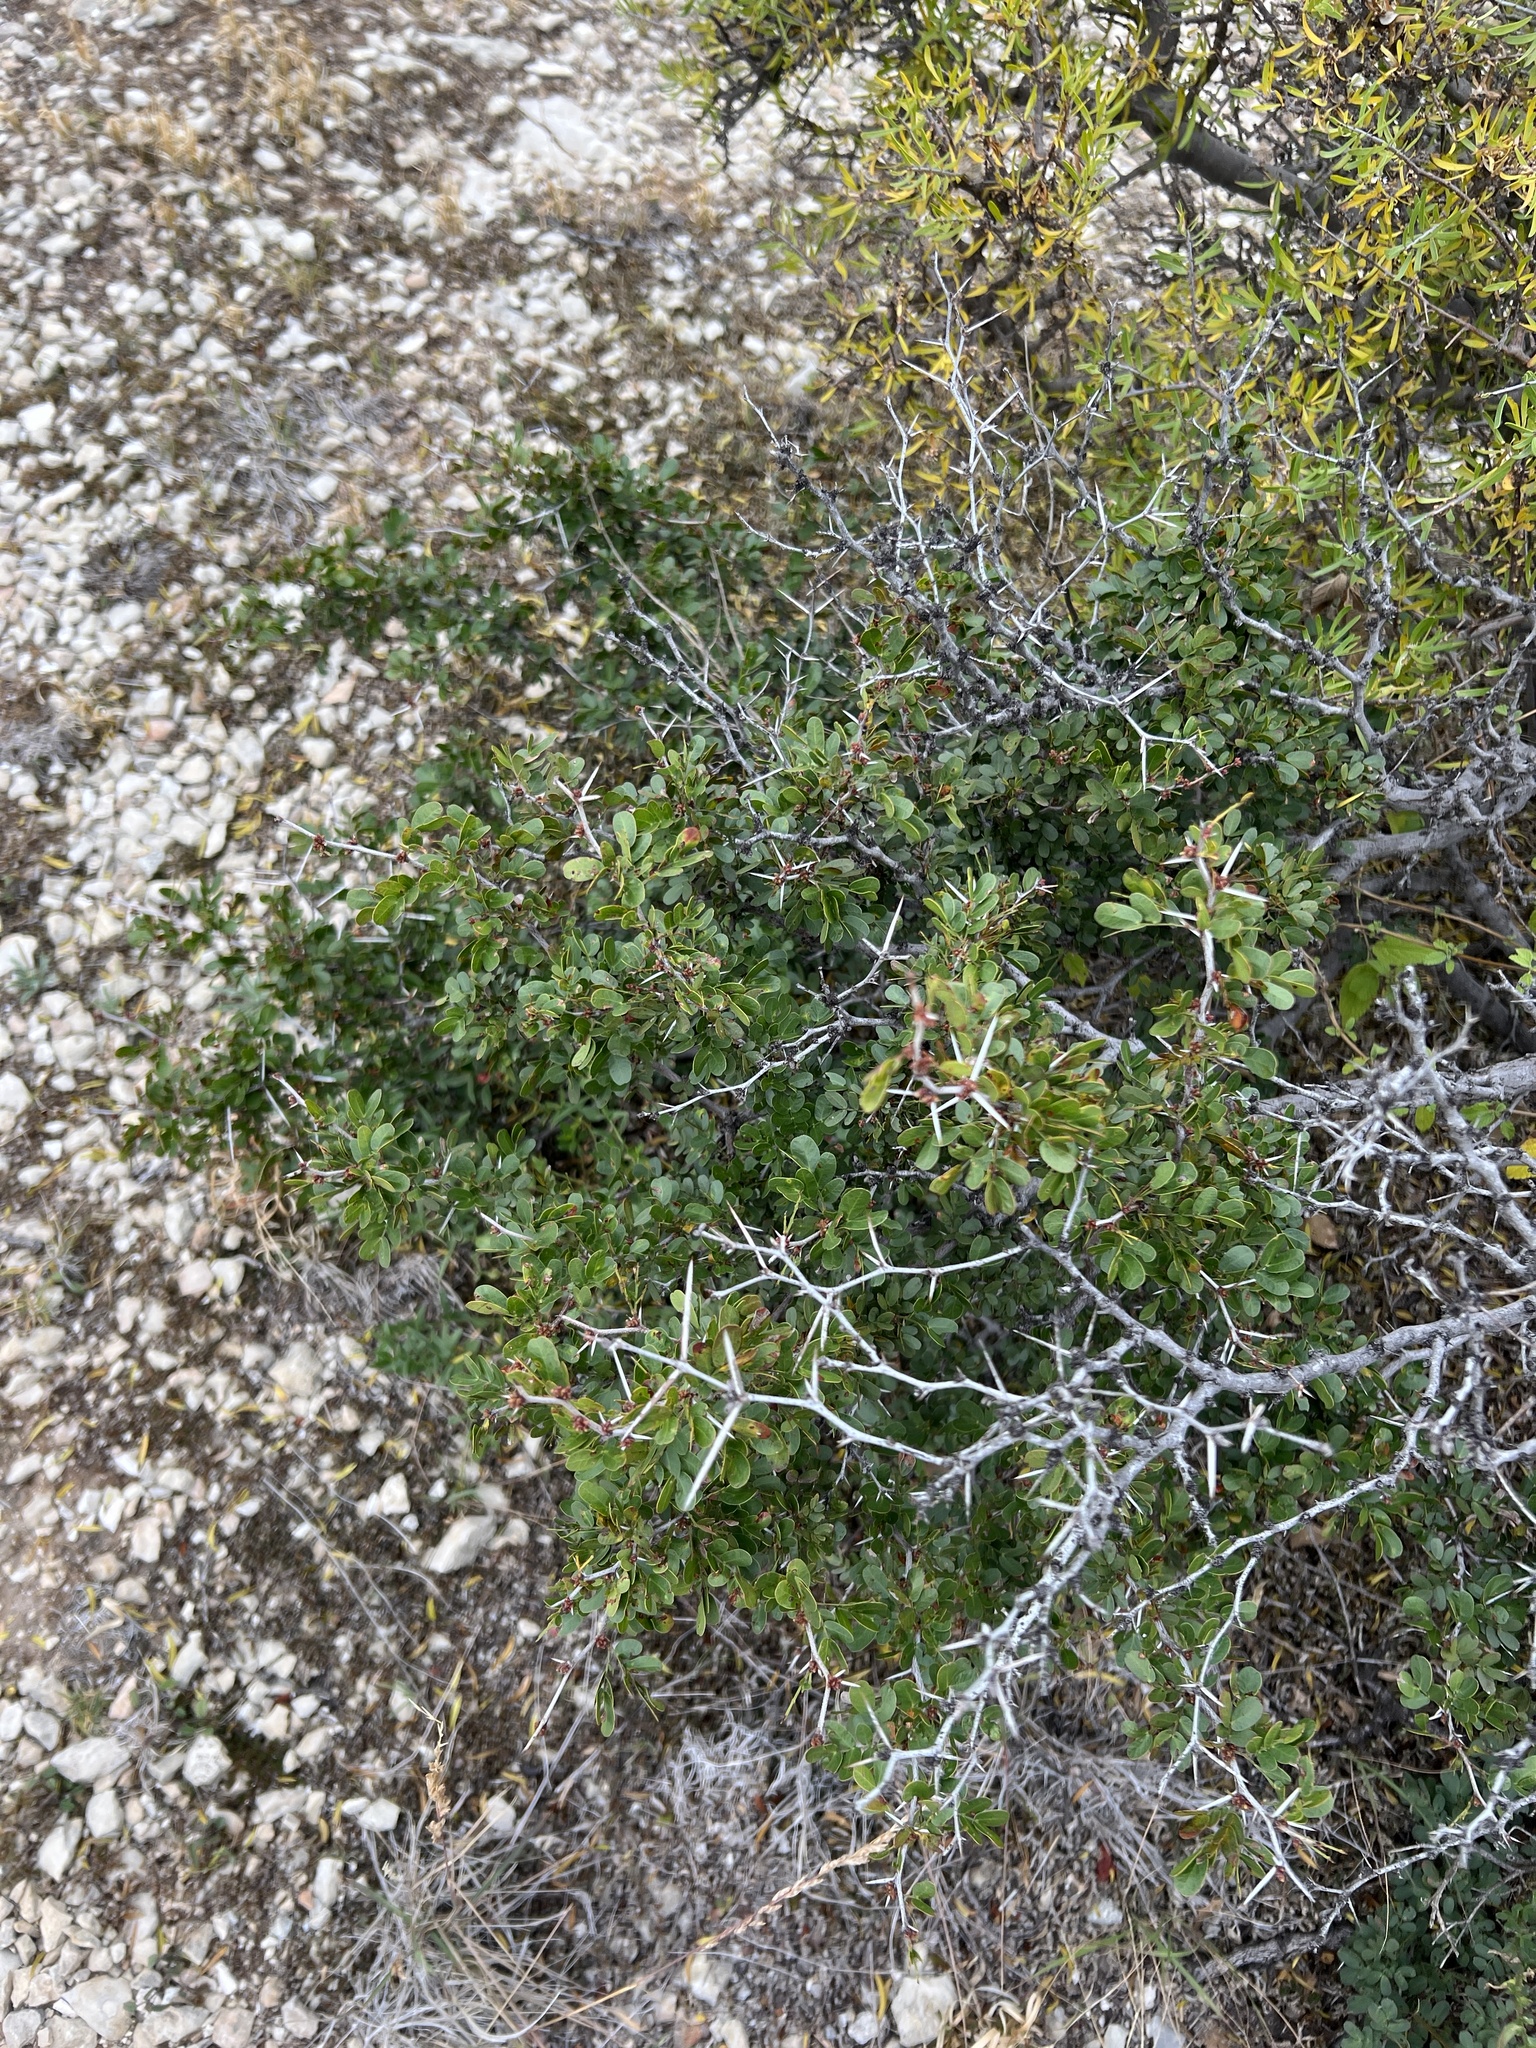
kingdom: Plantae
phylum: Tracheophyta
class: Magnoliopsida
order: Fabales
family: Fabaceae
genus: Vachellia
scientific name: Vachellia rigidula
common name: Blackbrush
